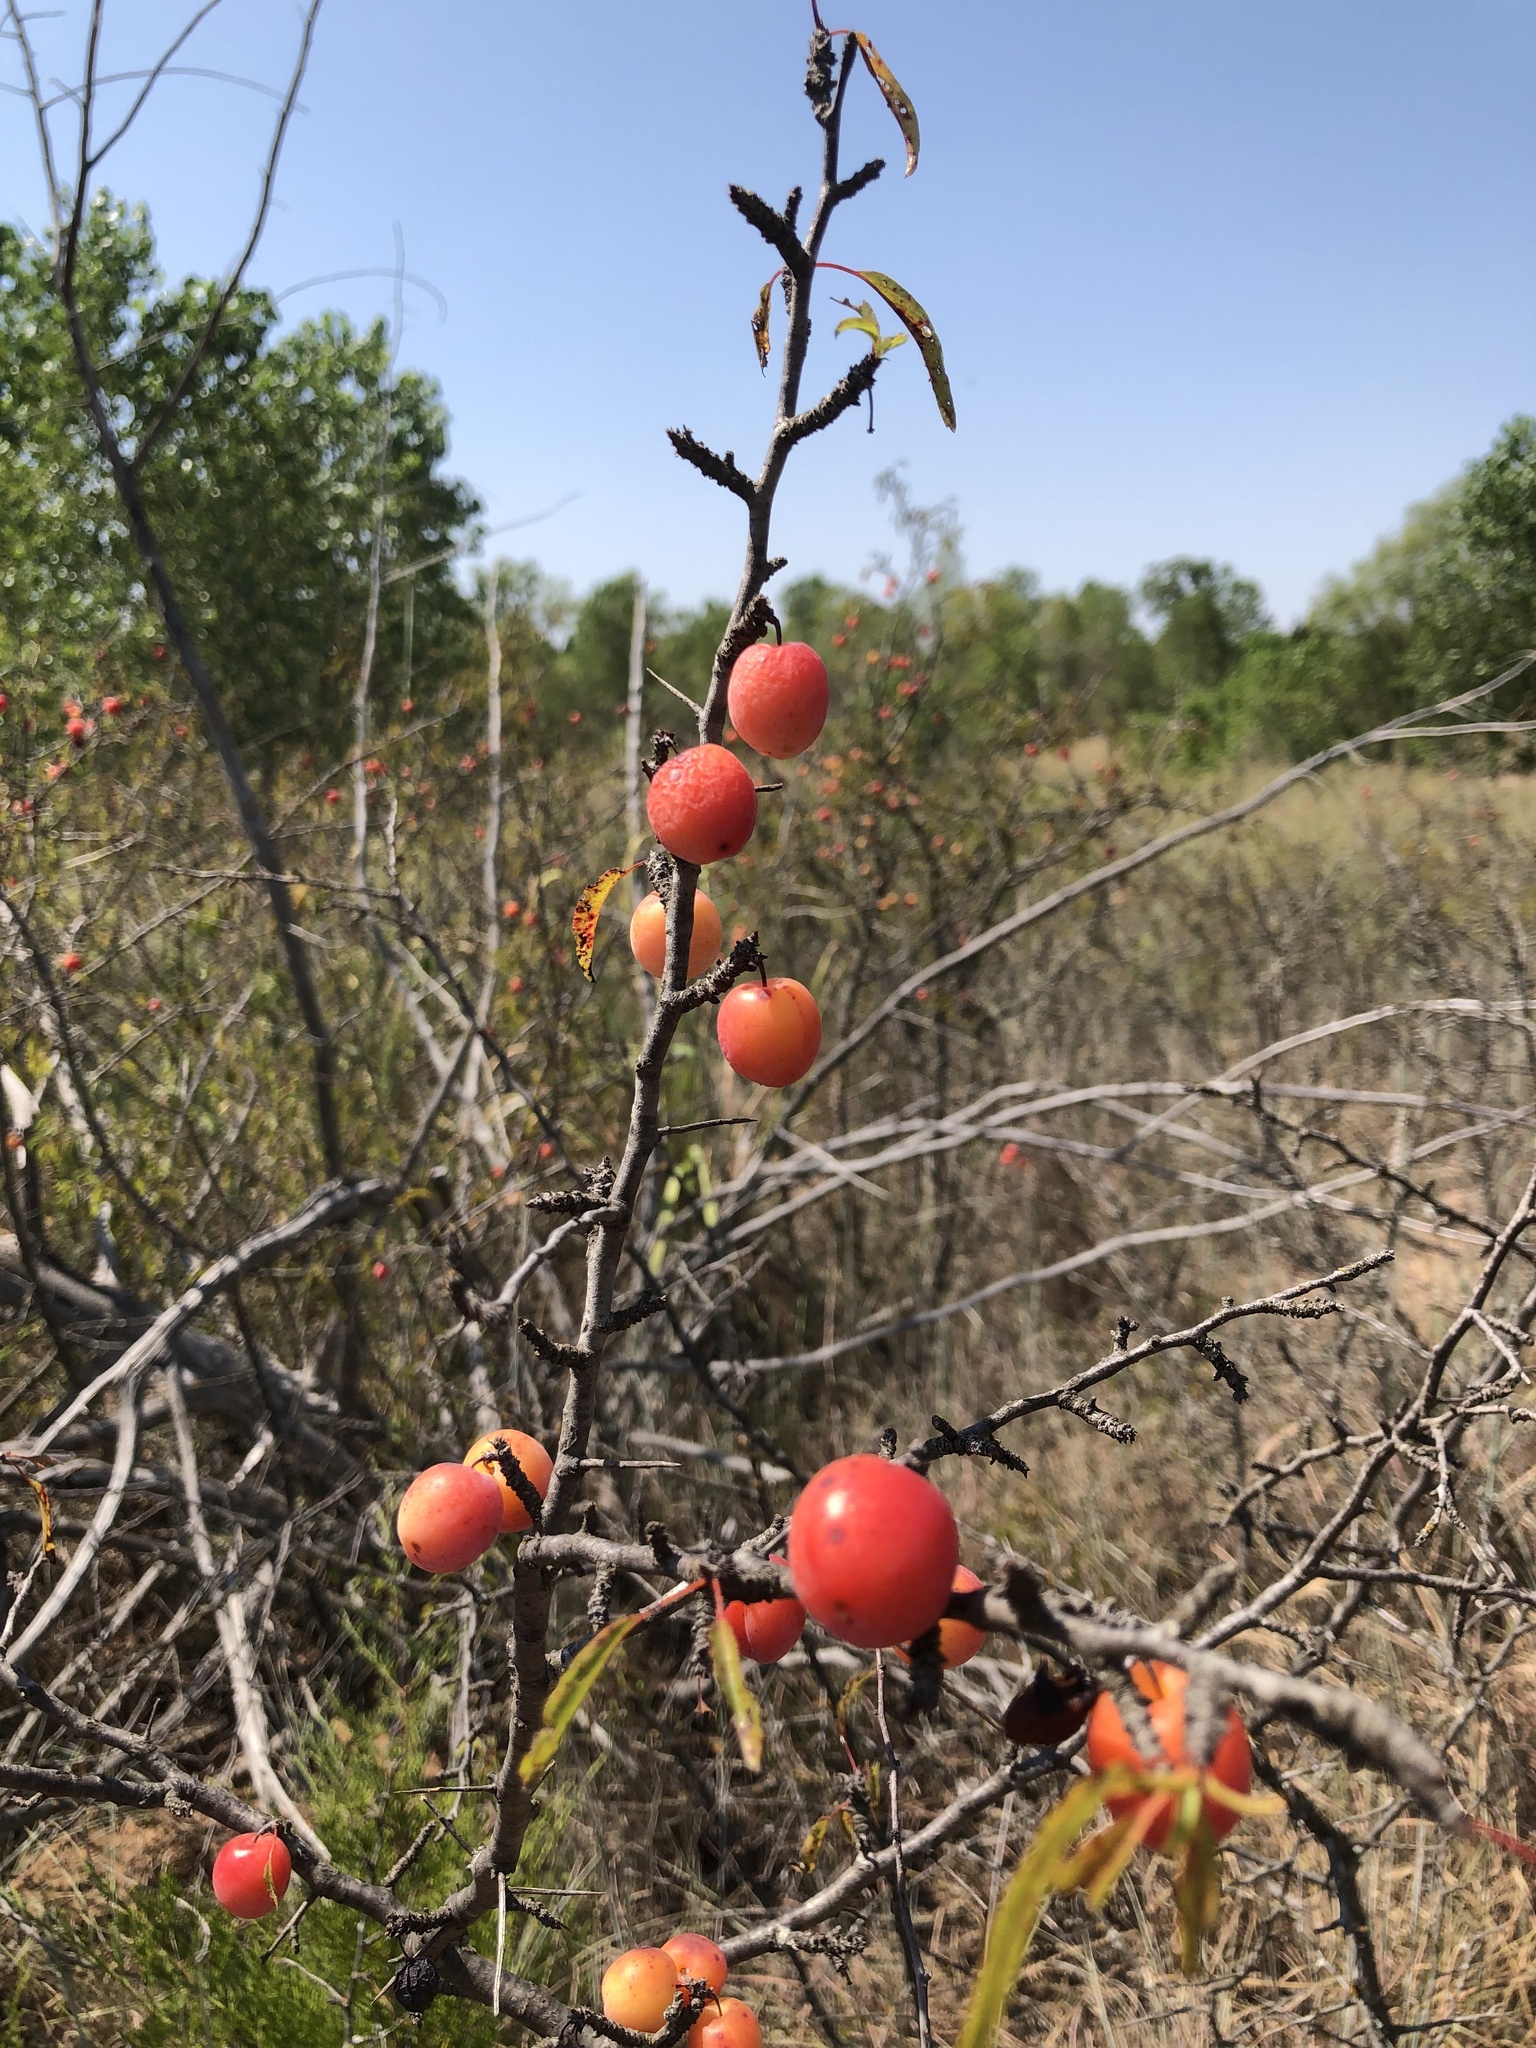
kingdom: Plantae
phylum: Tracheophyta
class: Magnoliopsida
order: Rosales
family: Rosaceae
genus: Prunus
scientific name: Prunus angustifolia
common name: Cherokee plum
